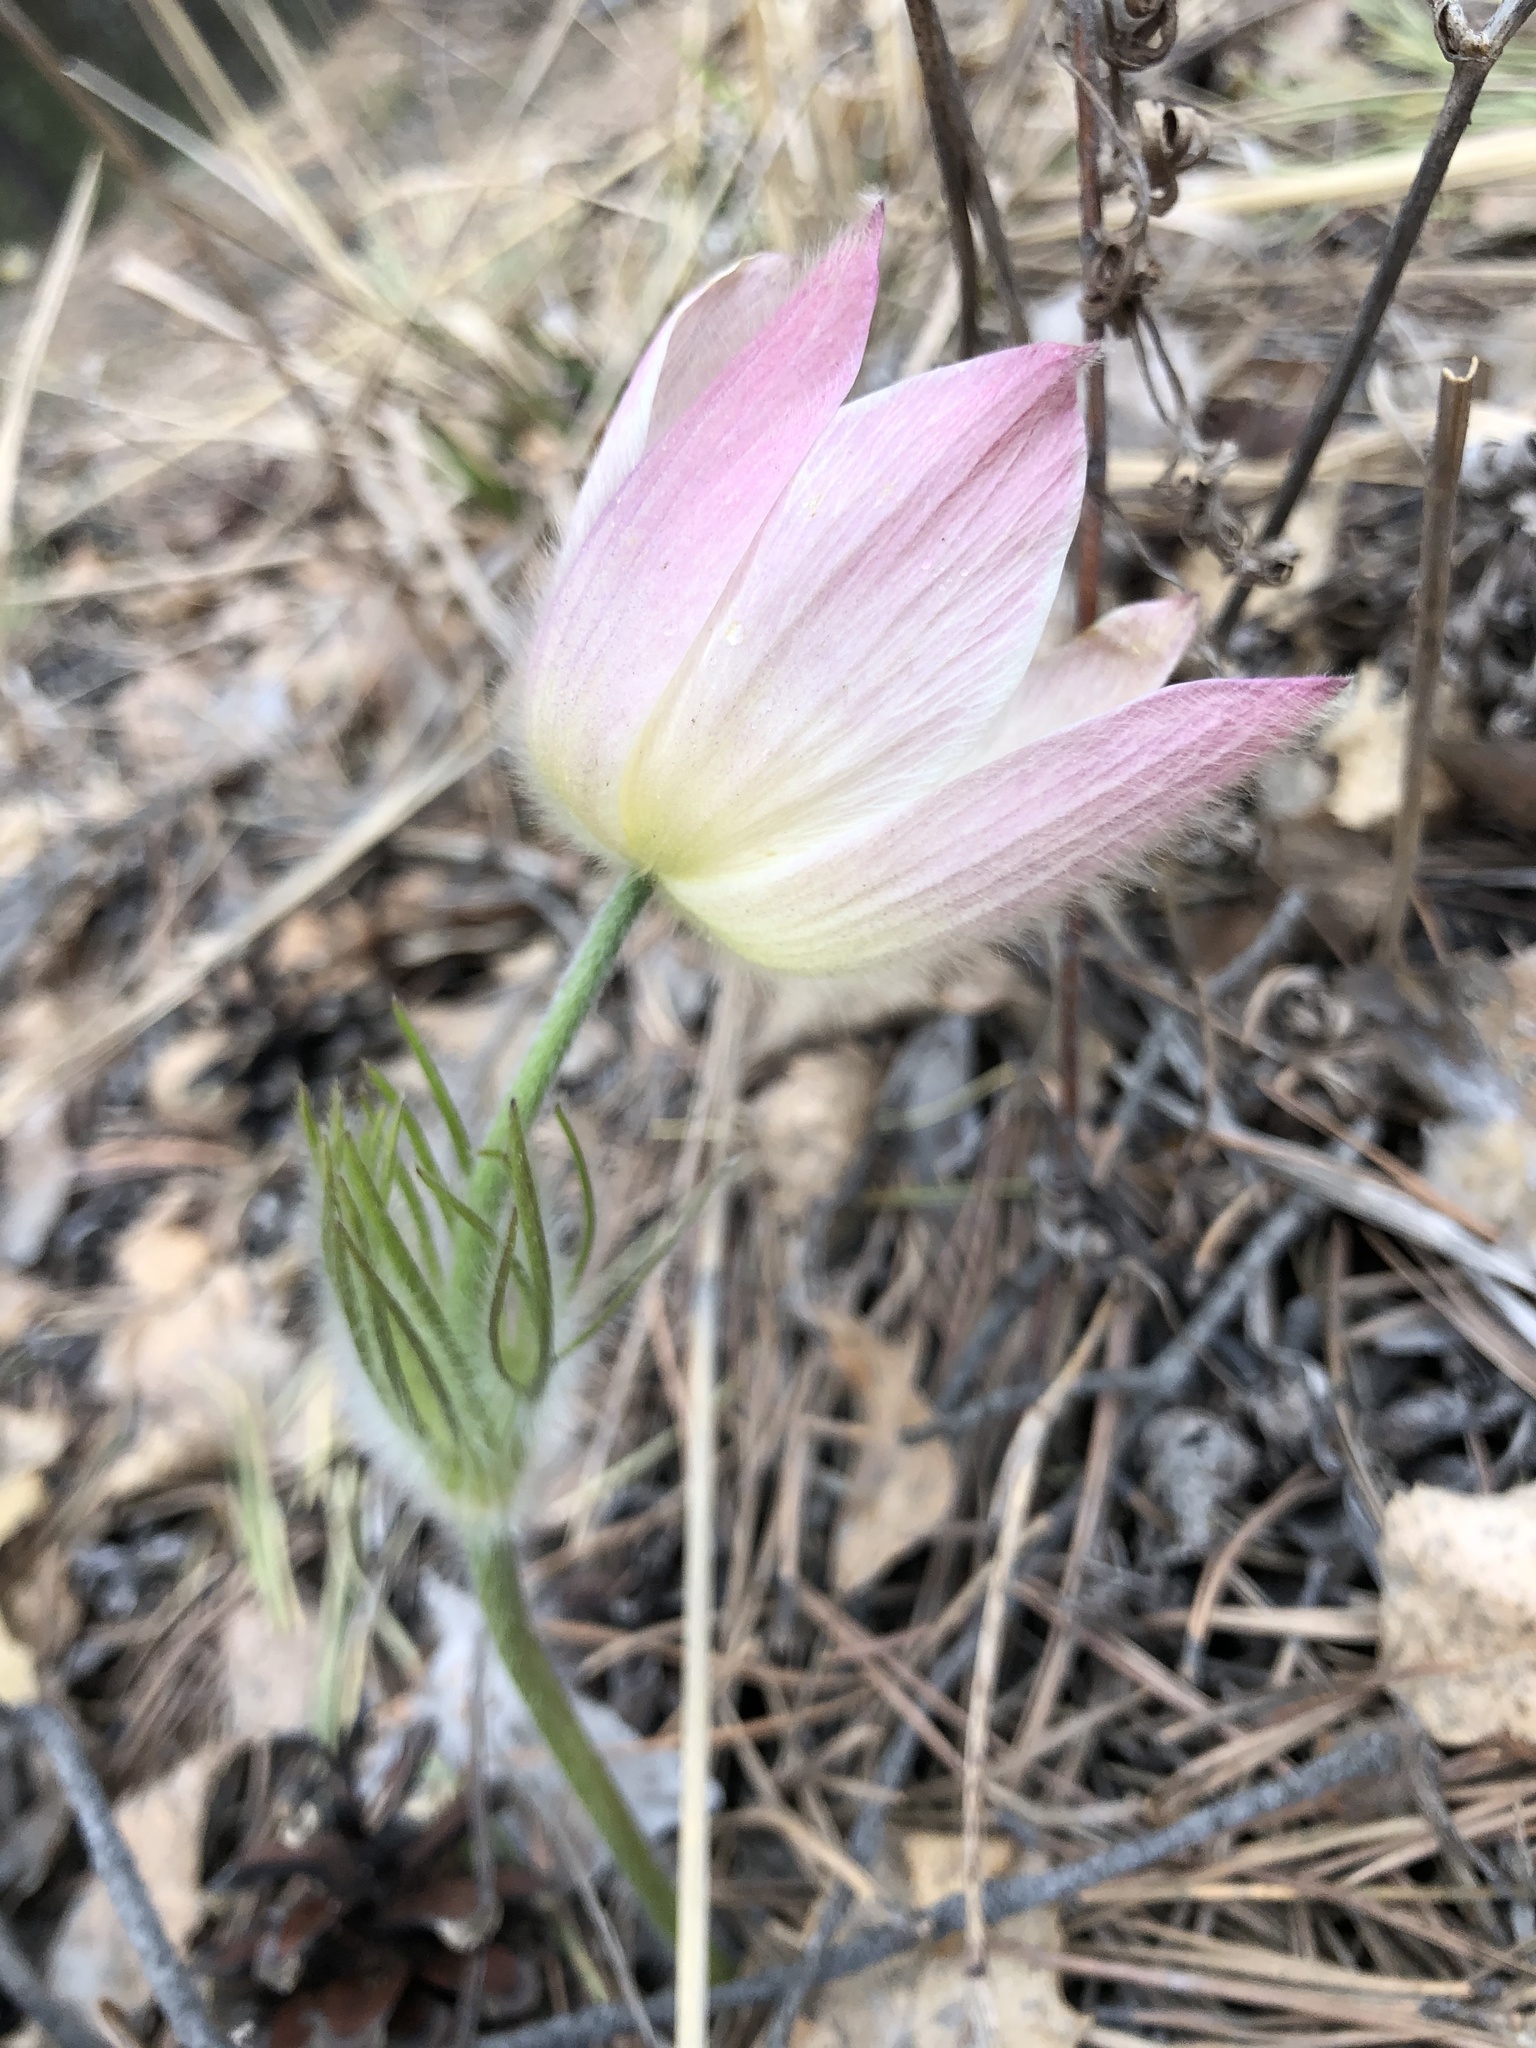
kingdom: Plantae
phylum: Tracheophyta
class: Magnoliopsida
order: Ranunculales
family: Ranunculaceae
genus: Pulsatilla
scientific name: Pulsatilla patens
